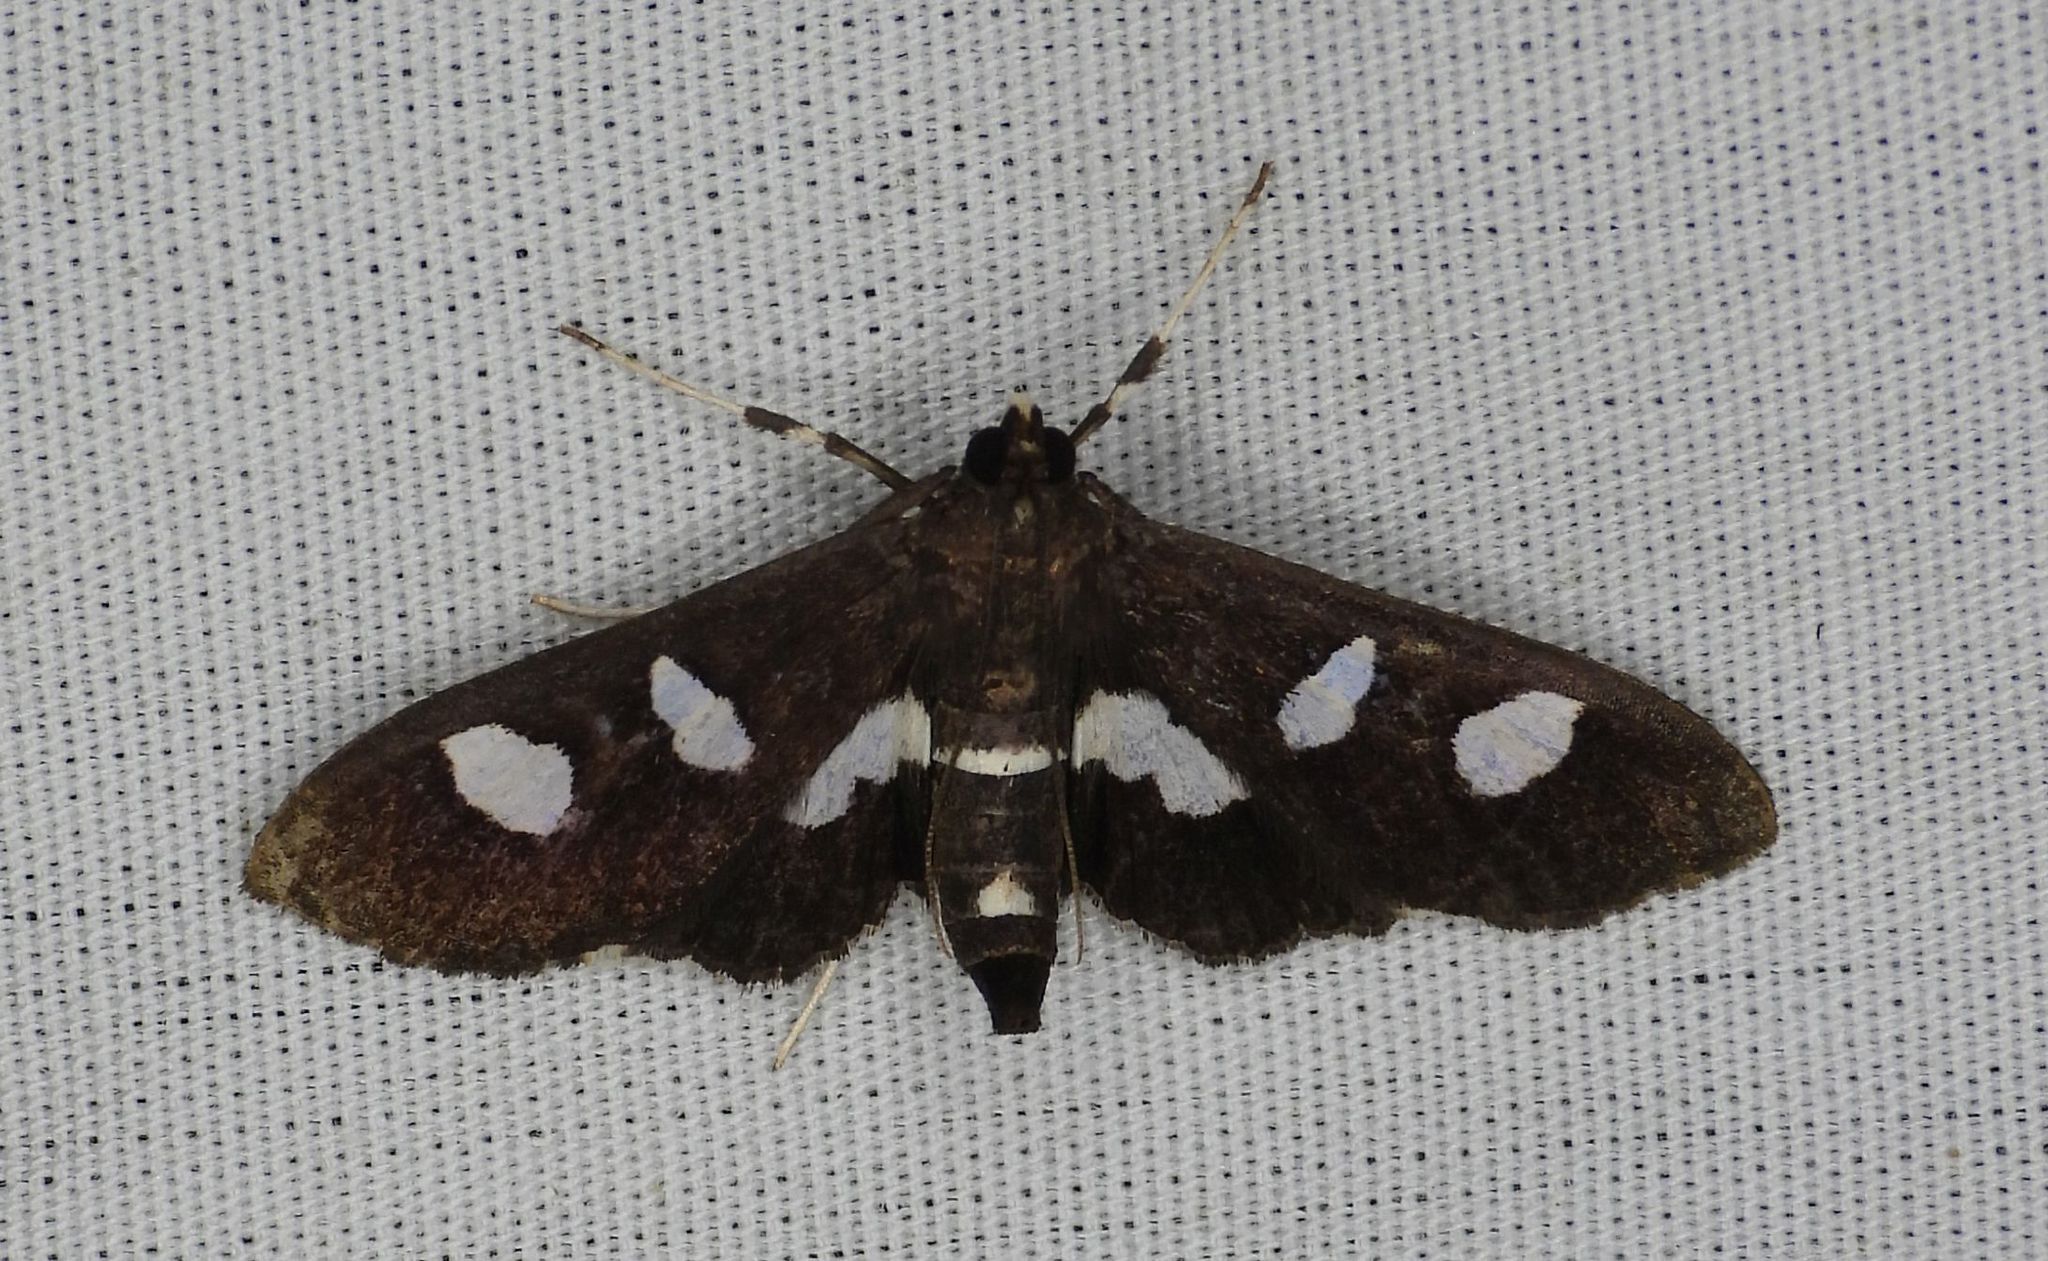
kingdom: Animalia
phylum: Arthropoda
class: Insecta
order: Lepidoptera
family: Crambidae
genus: Desmia
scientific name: Desmia
